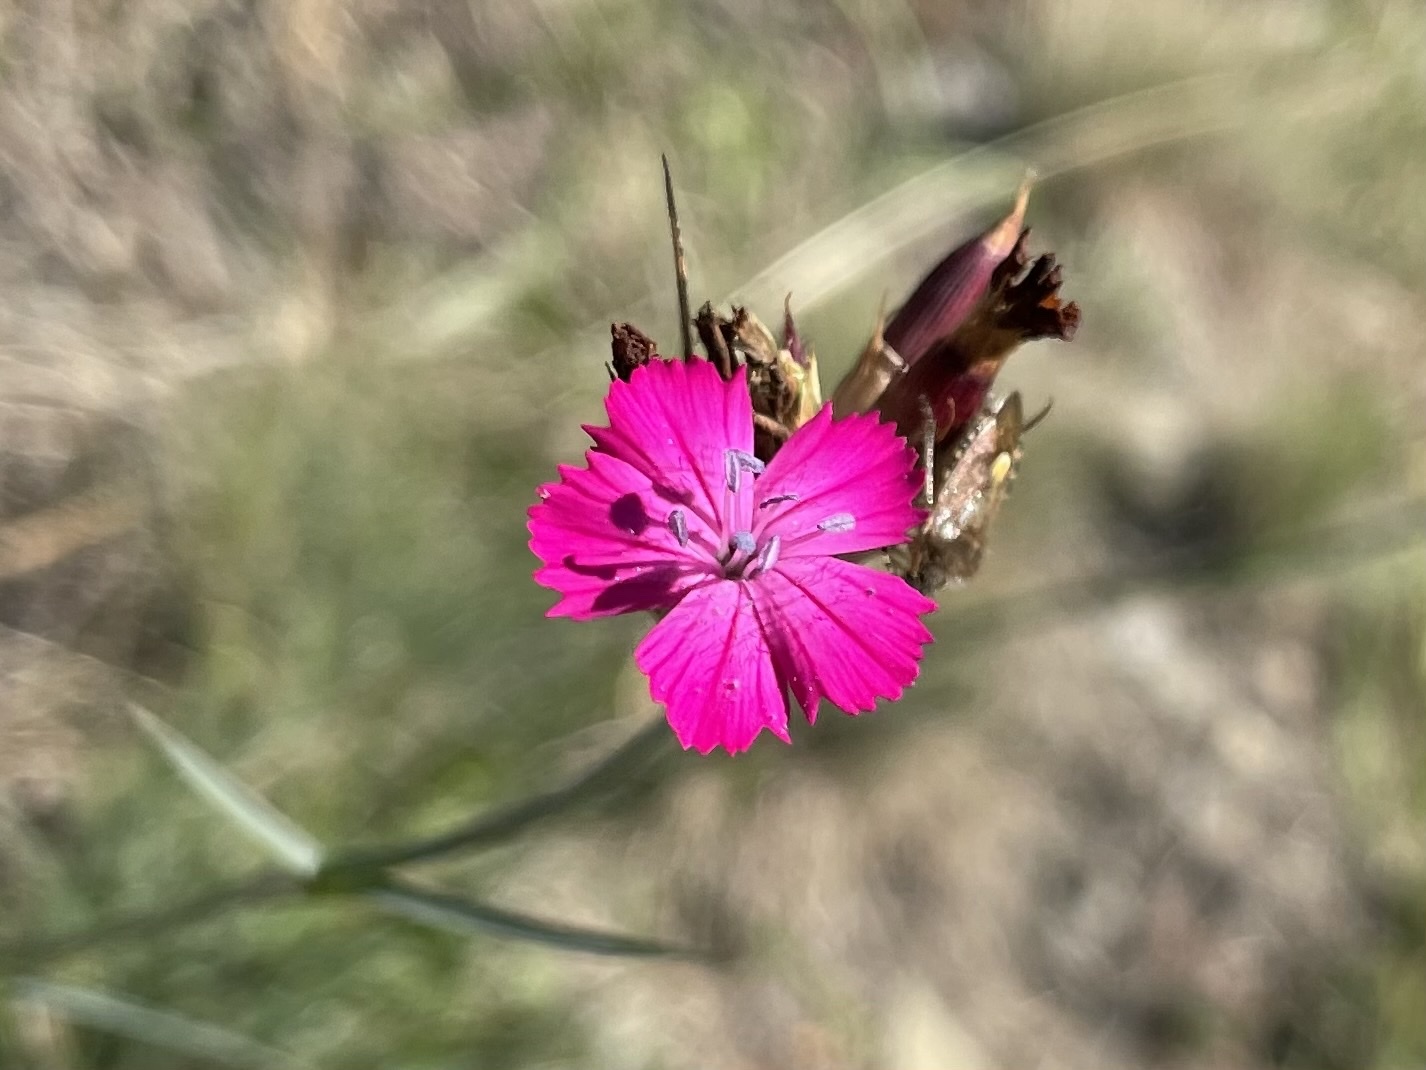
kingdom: Plantae
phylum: Tracheophyta
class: Magnoliopsida
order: Caryophyllales
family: Caryophyllaceae
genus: Dianthus
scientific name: Dianthus carthusianorum
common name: Carthusian pink
